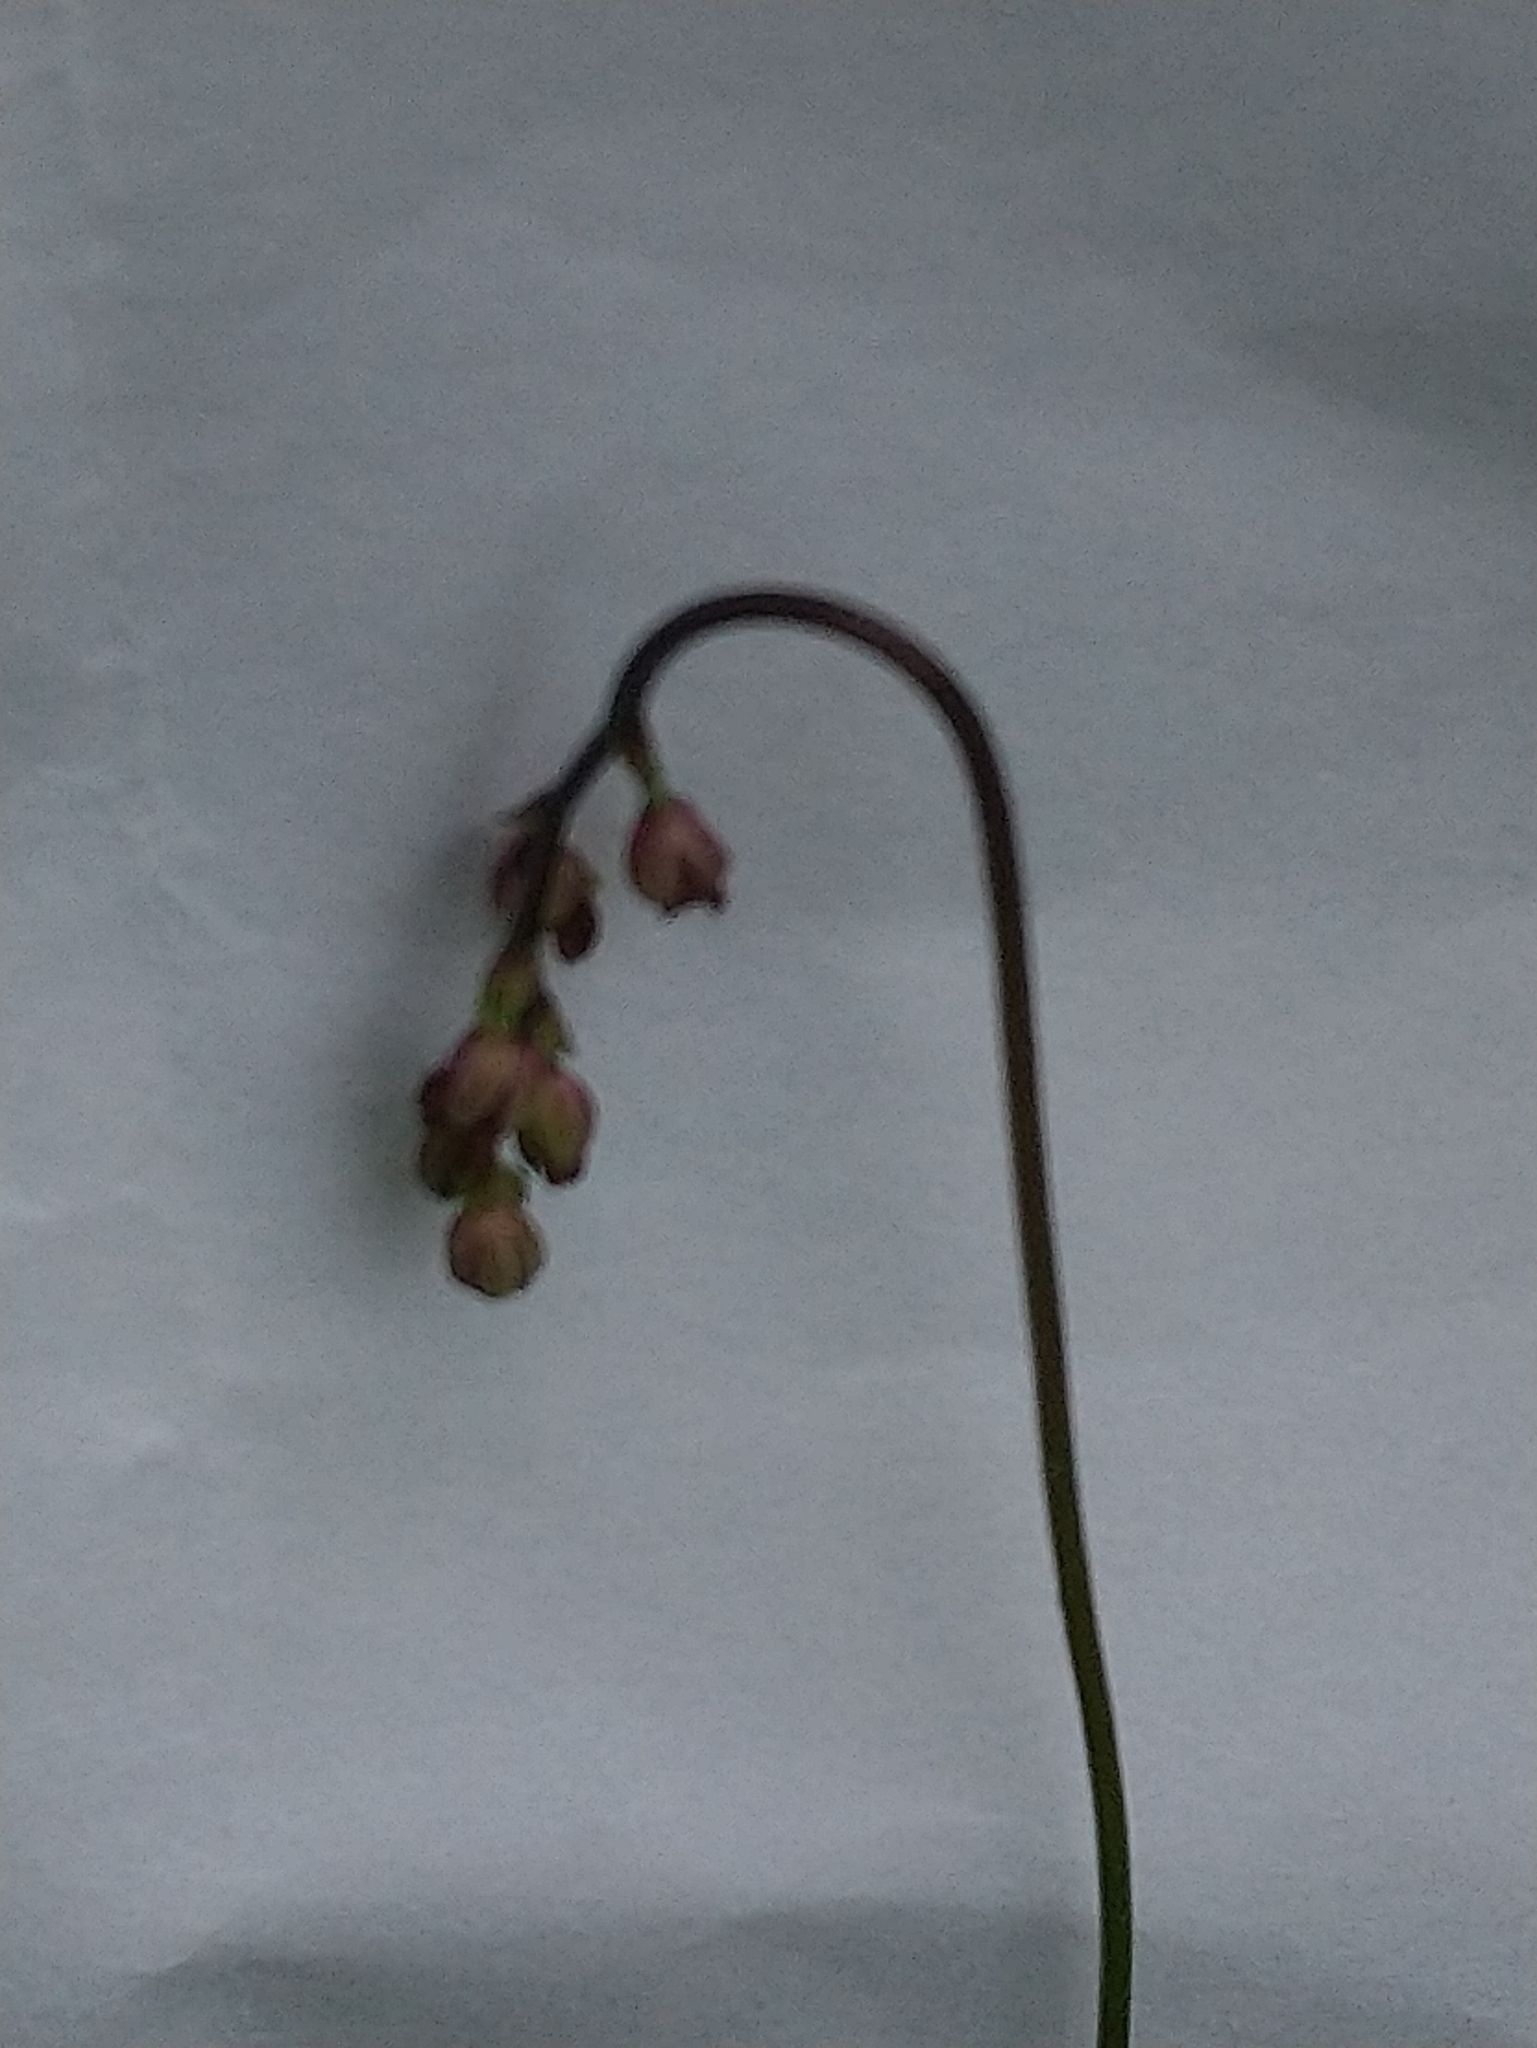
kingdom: Plantae
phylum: Tracheophyta
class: Magnoliopsida
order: Ranunculales
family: Ranunculaceae
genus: Thalictrum
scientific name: Thalictrum alpinum
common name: Alpine meadow-rue
